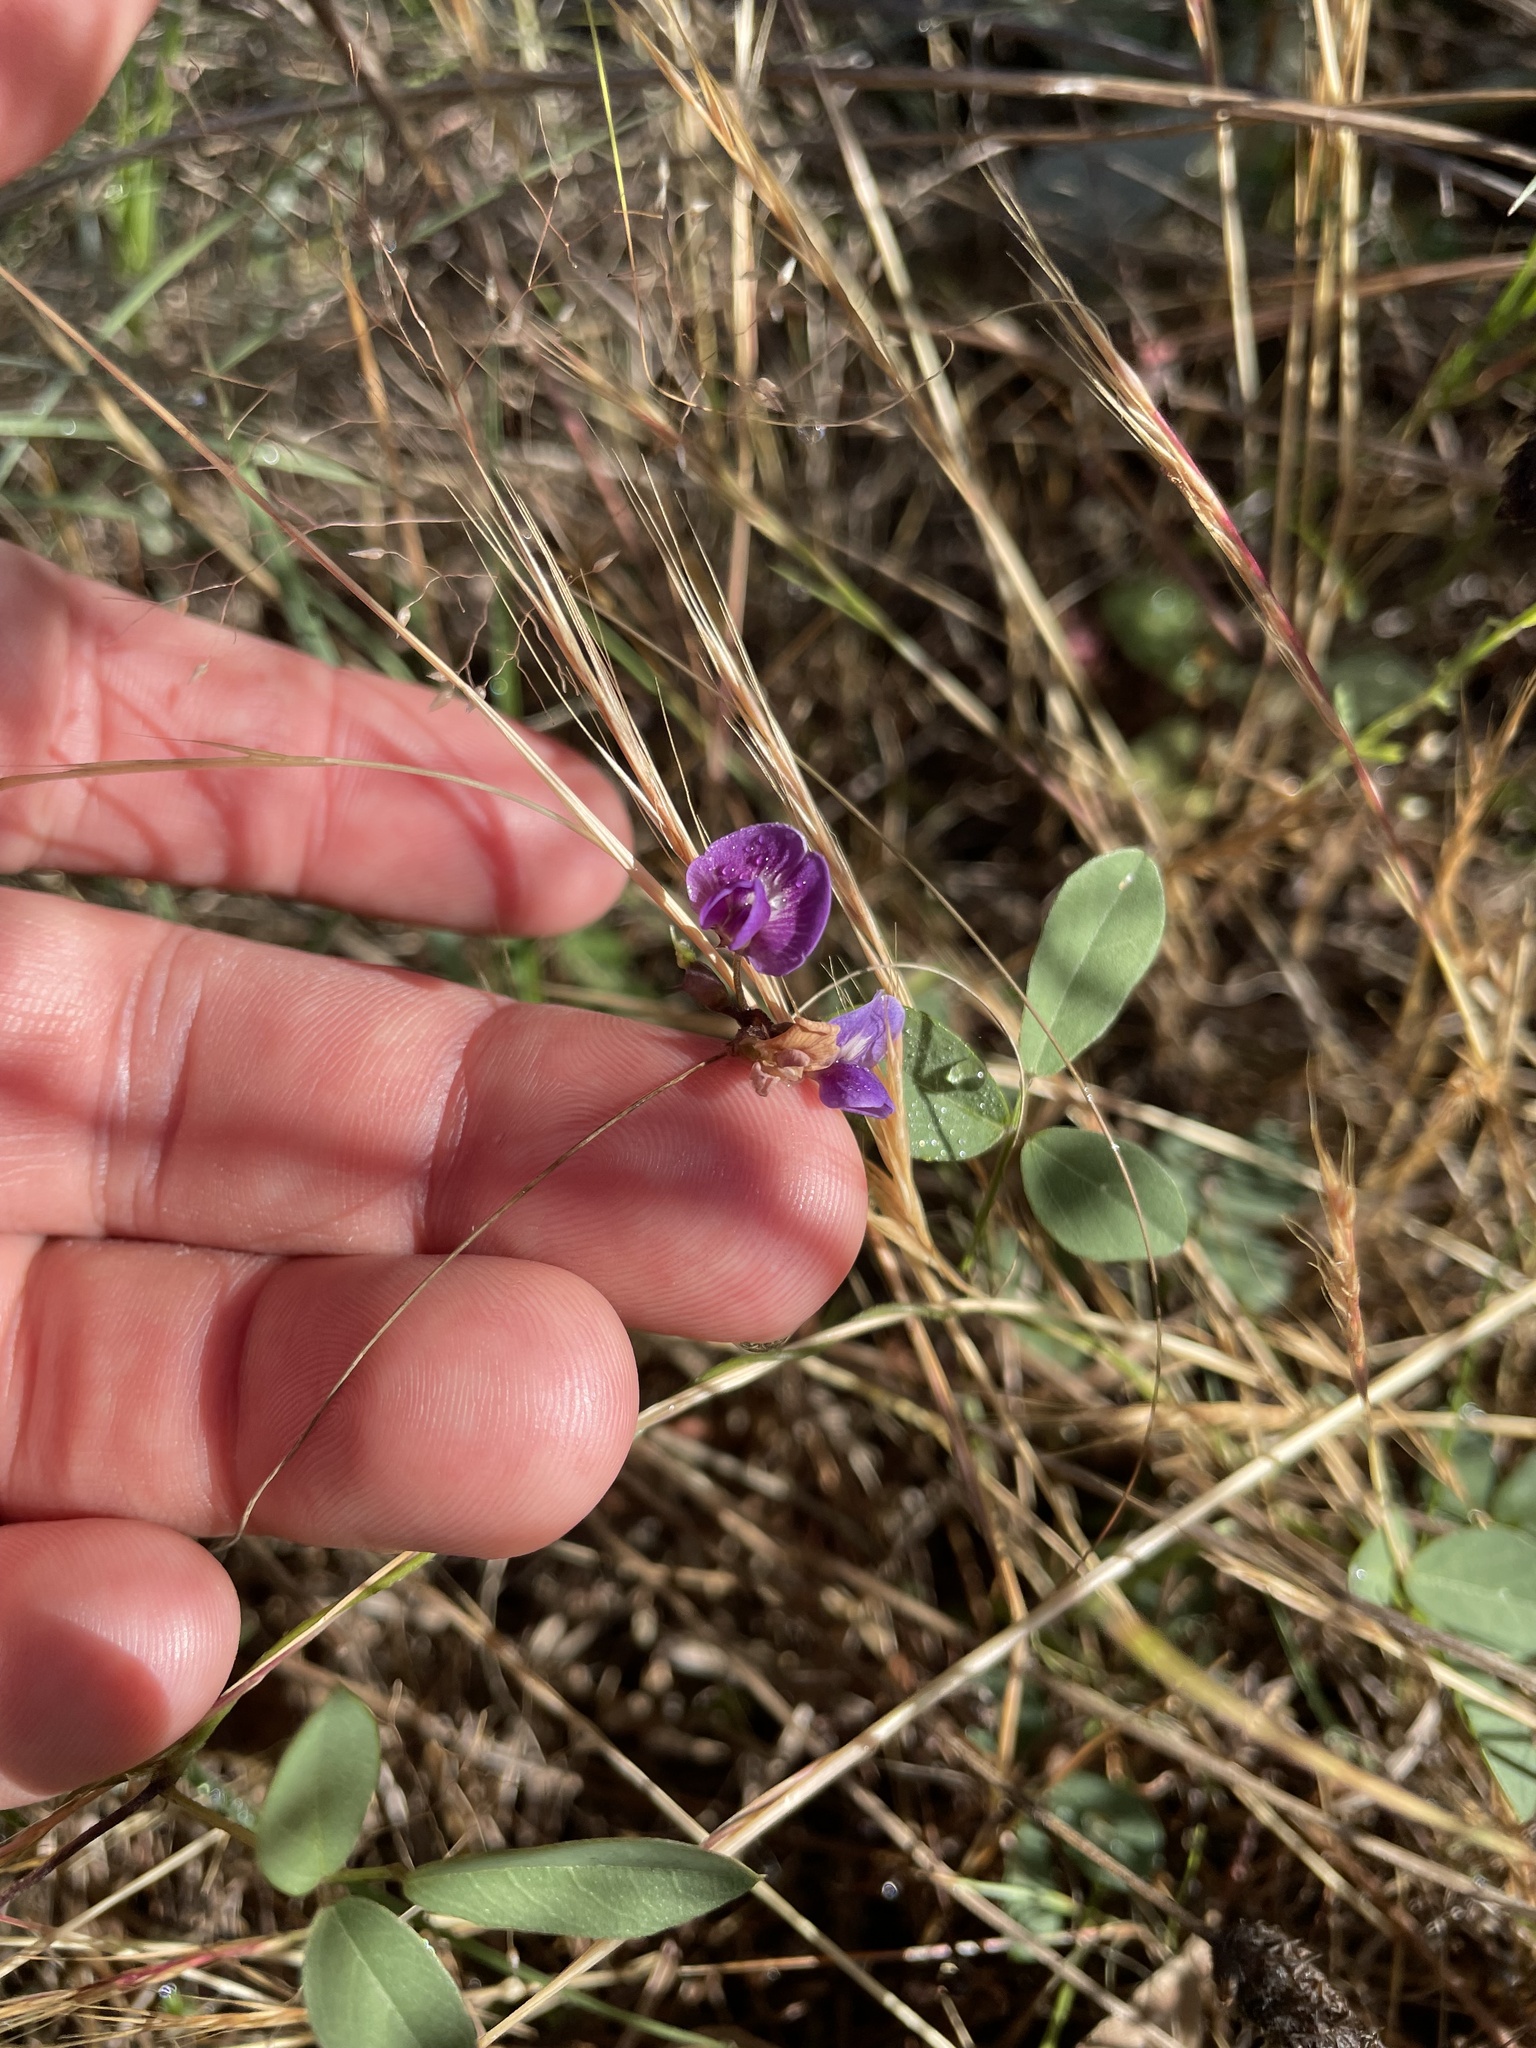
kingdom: Plantae
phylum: Tracheophyta
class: Magnoliopsida
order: Fabales
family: Fabaceae
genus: Glycine
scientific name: Glycine tabacina
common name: Pea glycine
